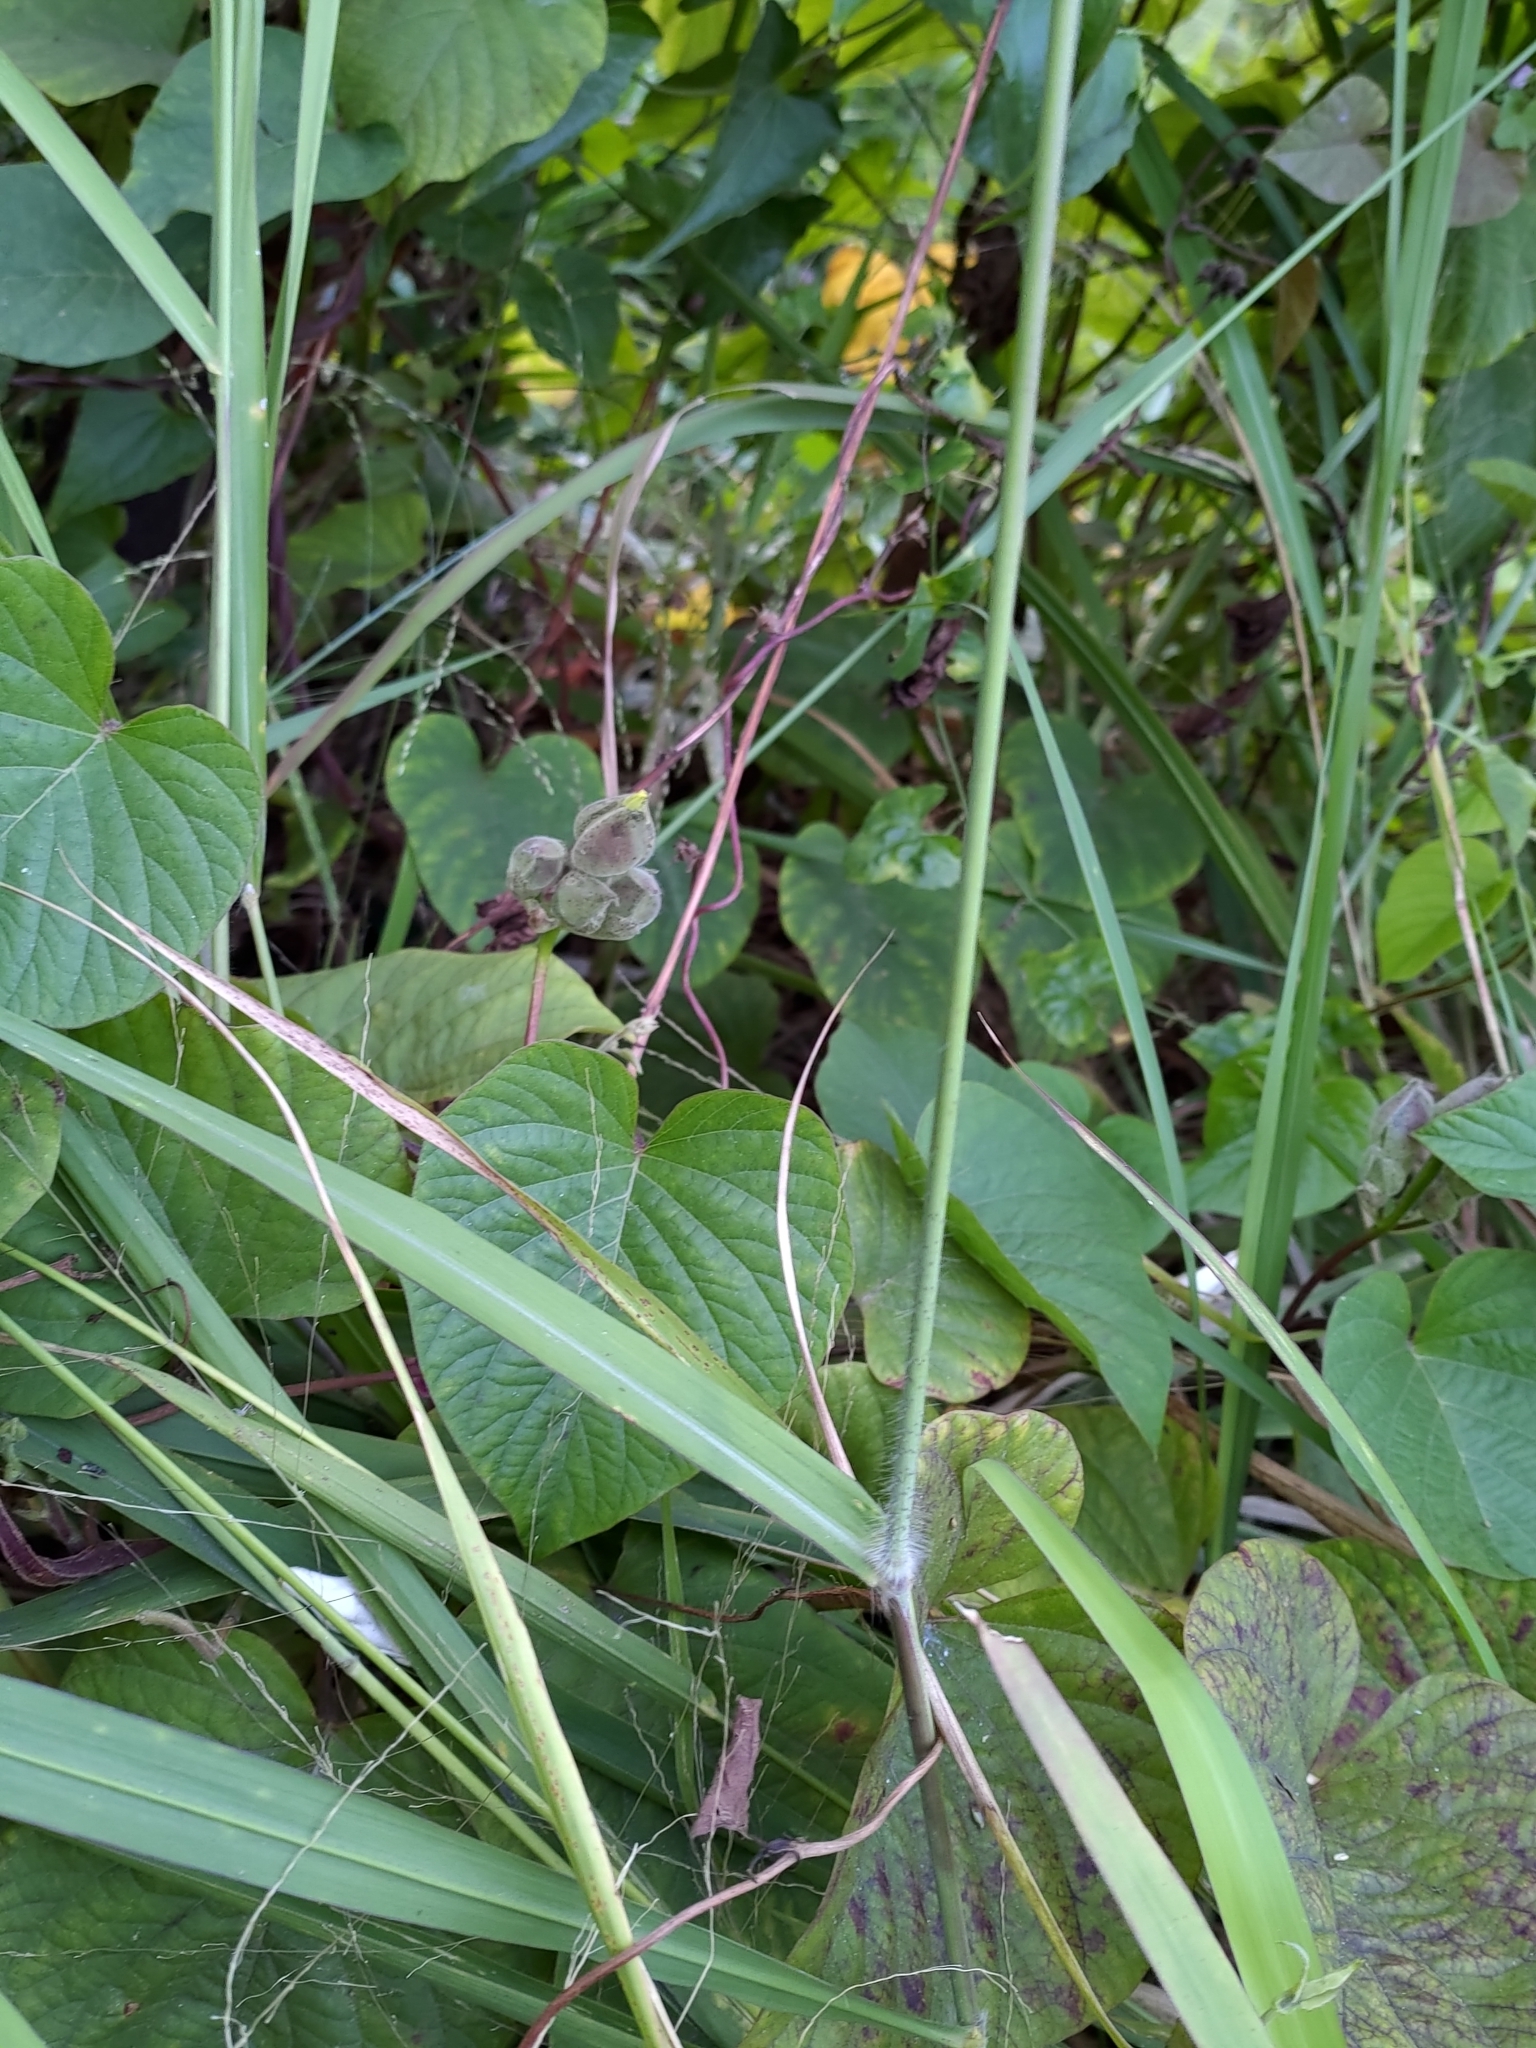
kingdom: Plantae
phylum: Tracheophyta
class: Liliopsida
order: Poales
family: Poaceae
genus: Megathyrsus
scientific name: Megathyrsus maximus
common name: Guineagrass
